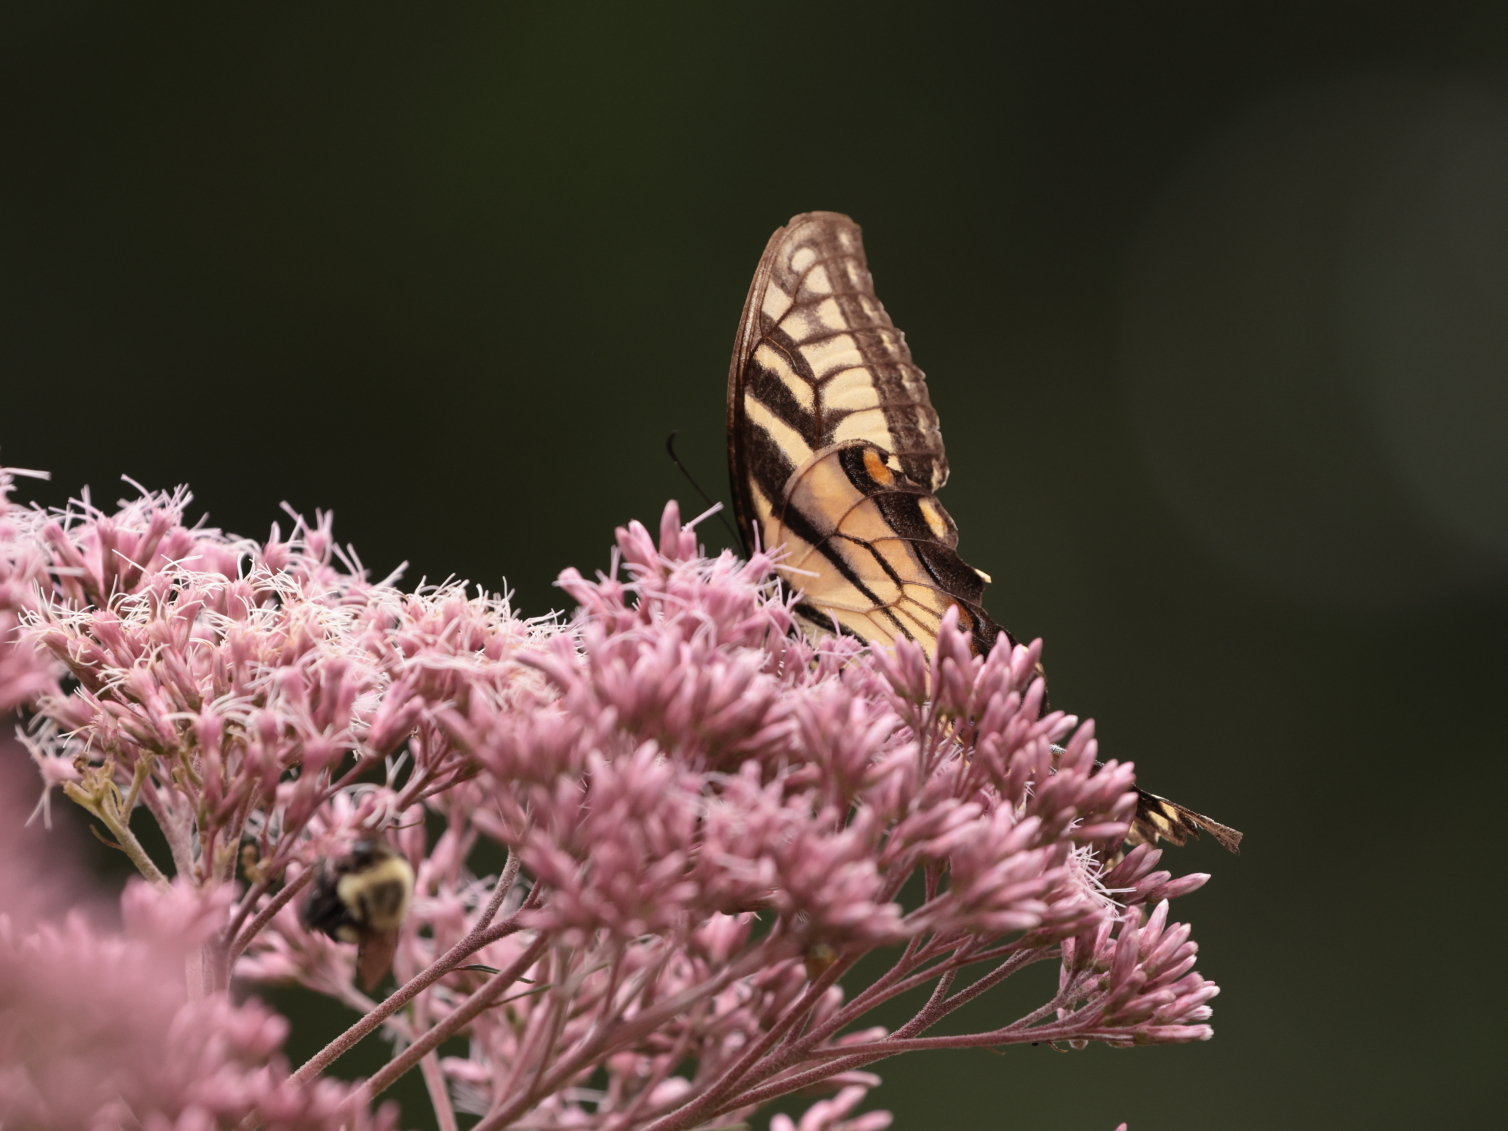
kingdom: Animalia
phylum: Arthropoda
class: Insecta
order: Lepidoptera
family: Papilionidae
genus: Papilio
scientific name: Papilio glaucus
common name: Tiger swallowtail
